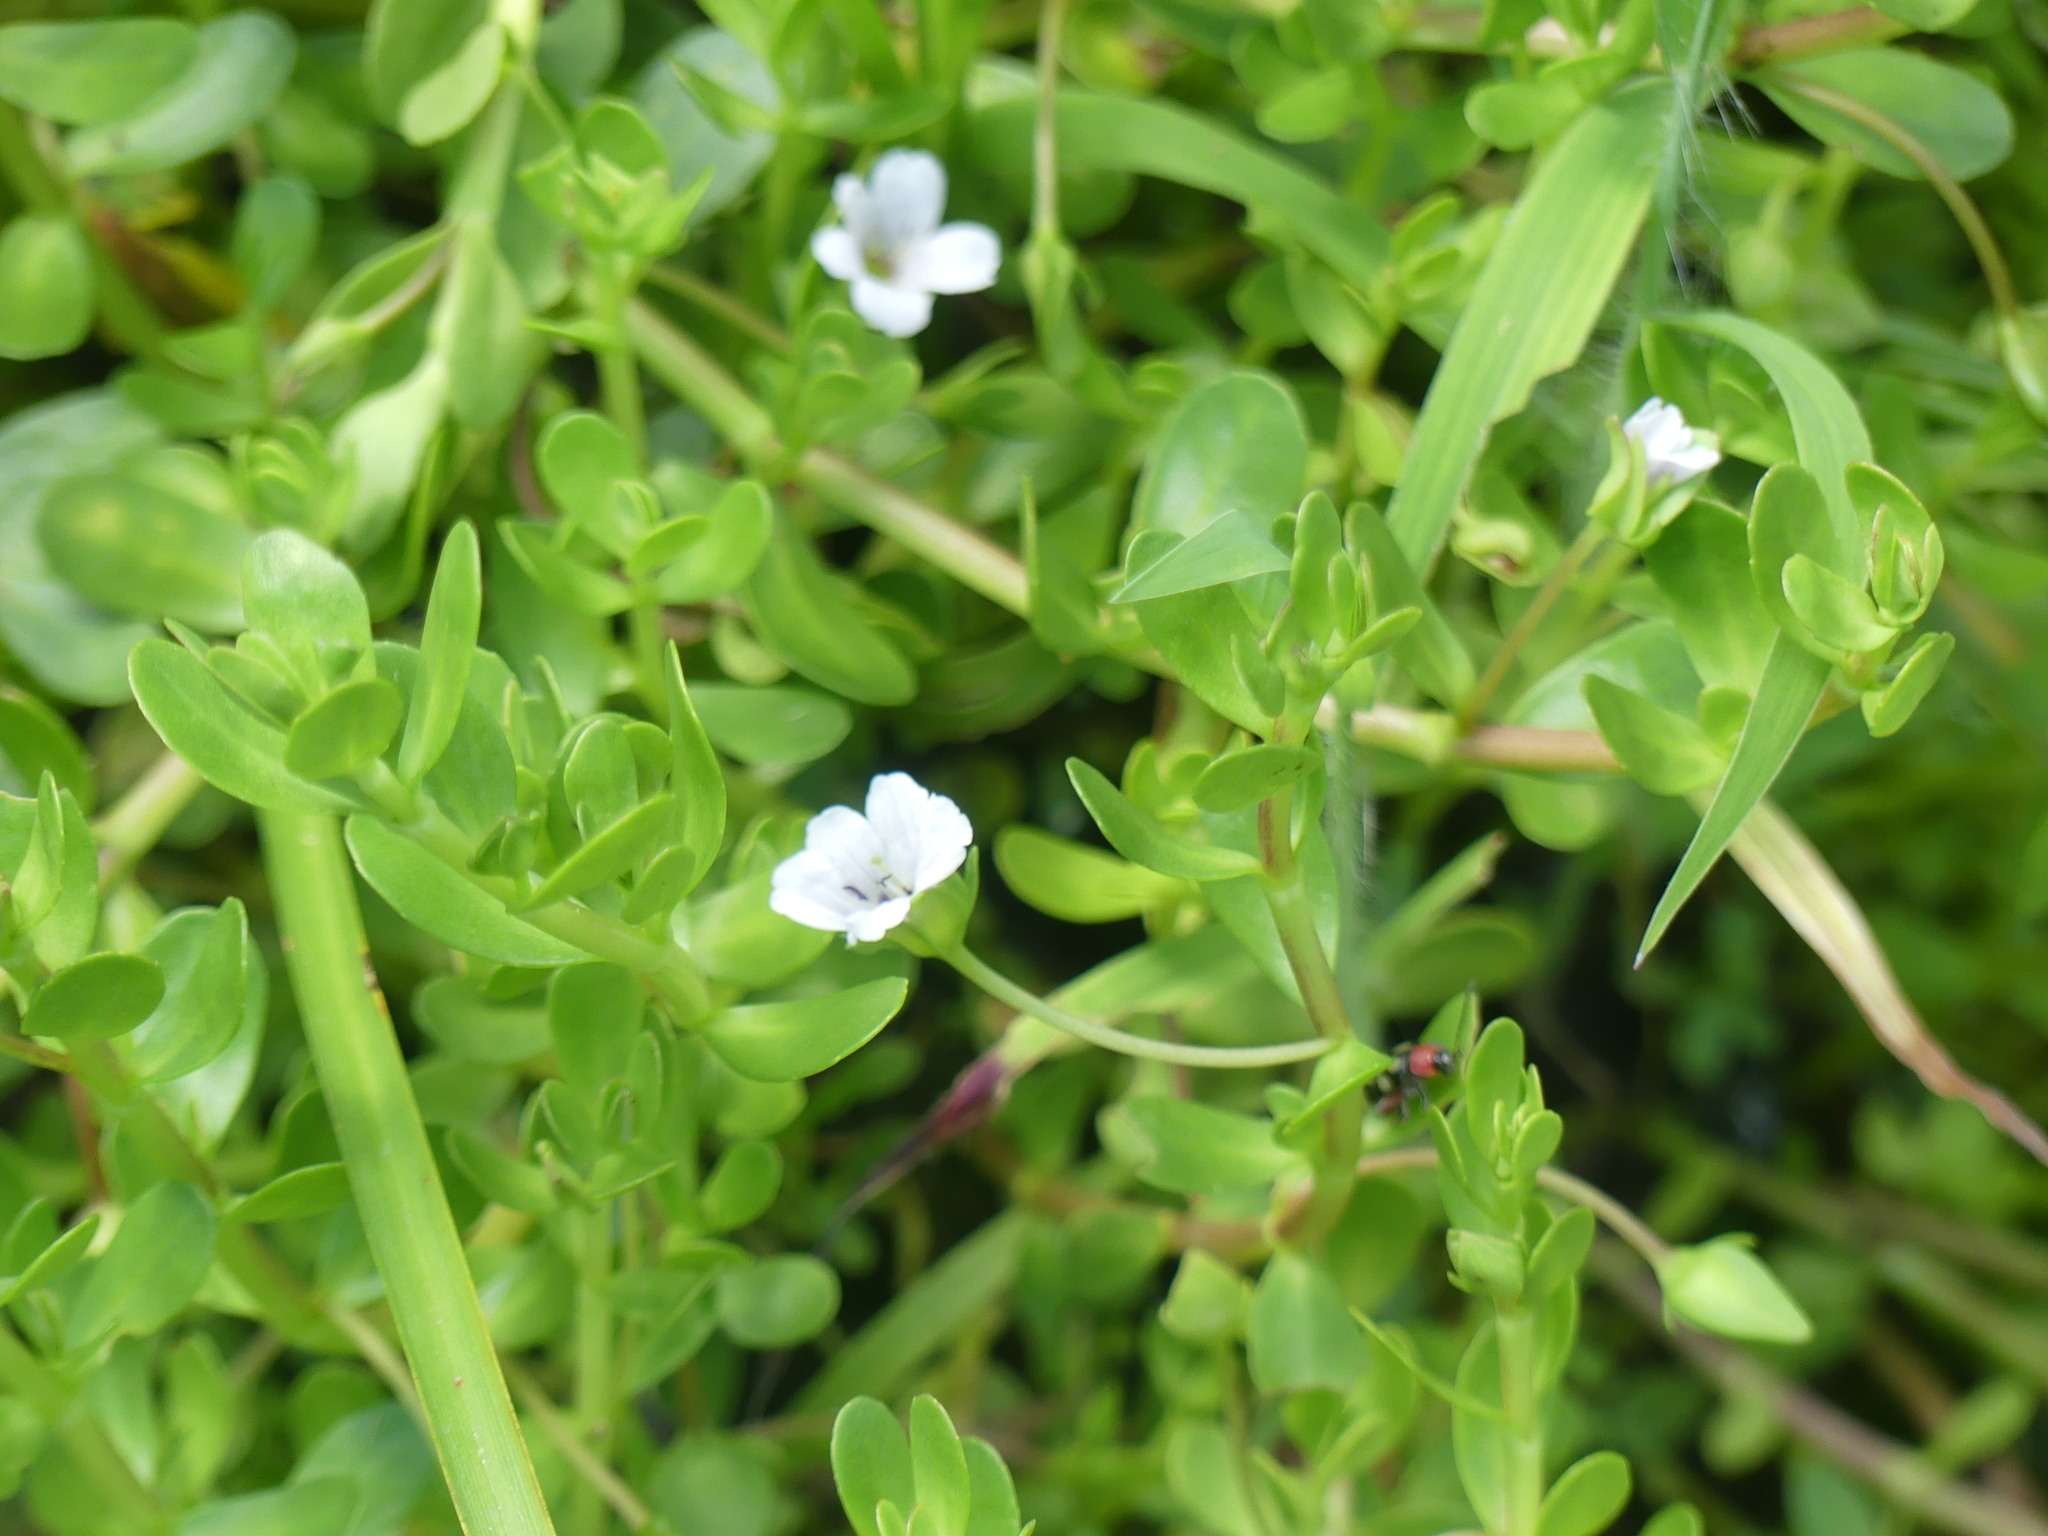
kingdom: Plantae
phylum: Tracheophyta
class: Magnoliopsida
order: Lamiales
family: Plantaginaceae
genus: Bacopa
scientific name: Bacopa monnieri
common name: Indian-pennywort
